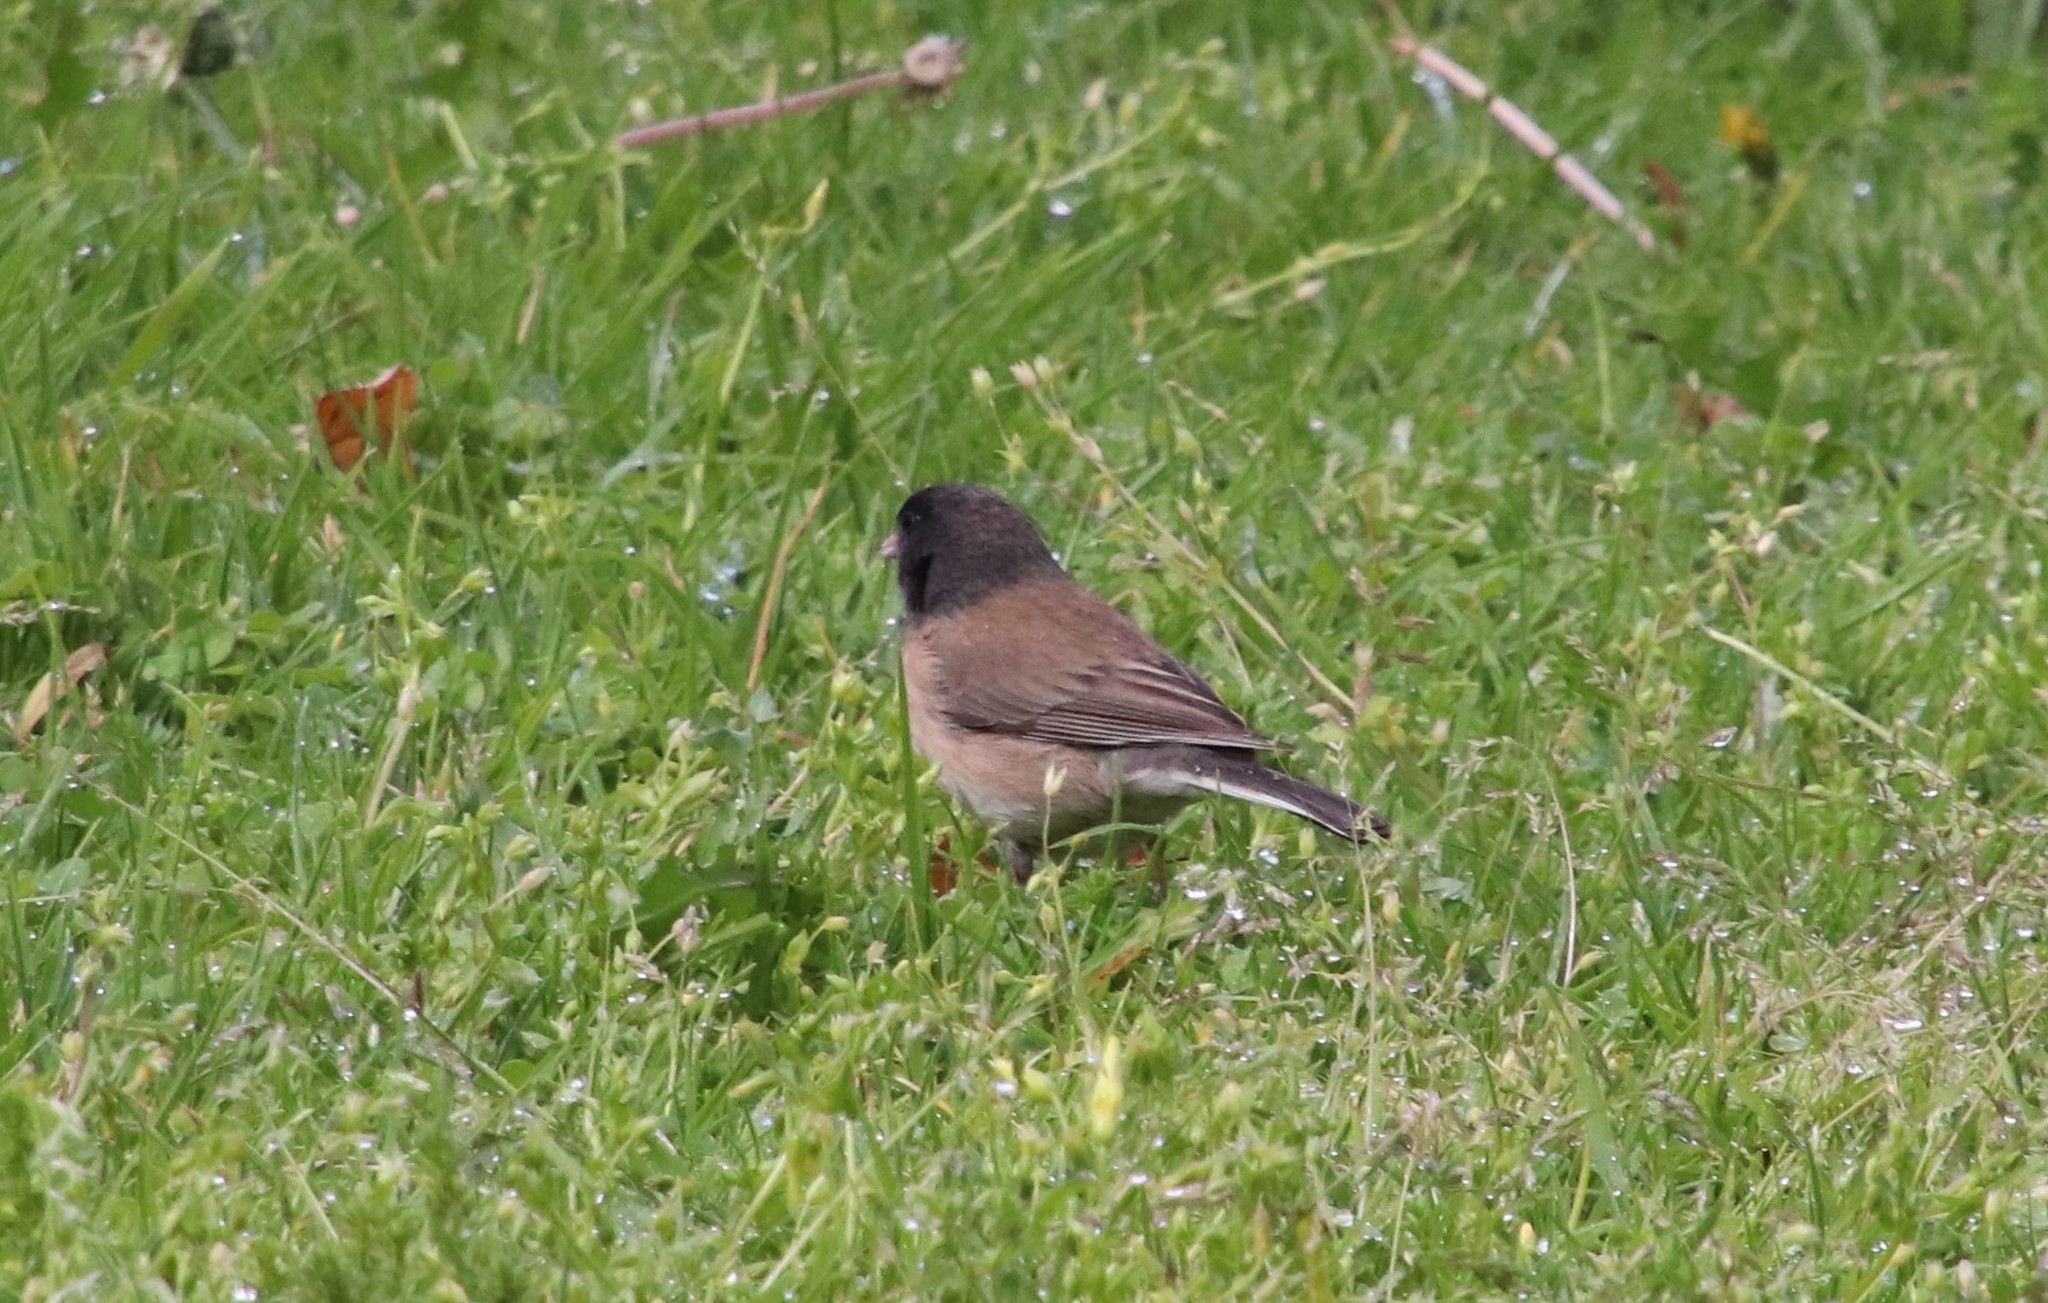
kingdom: Animalia
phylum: Chordata
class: Aves
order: Passeriformes
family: Passerellidae
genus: Junco
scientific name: Junco hyemalis
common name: Dark-eyed junco
